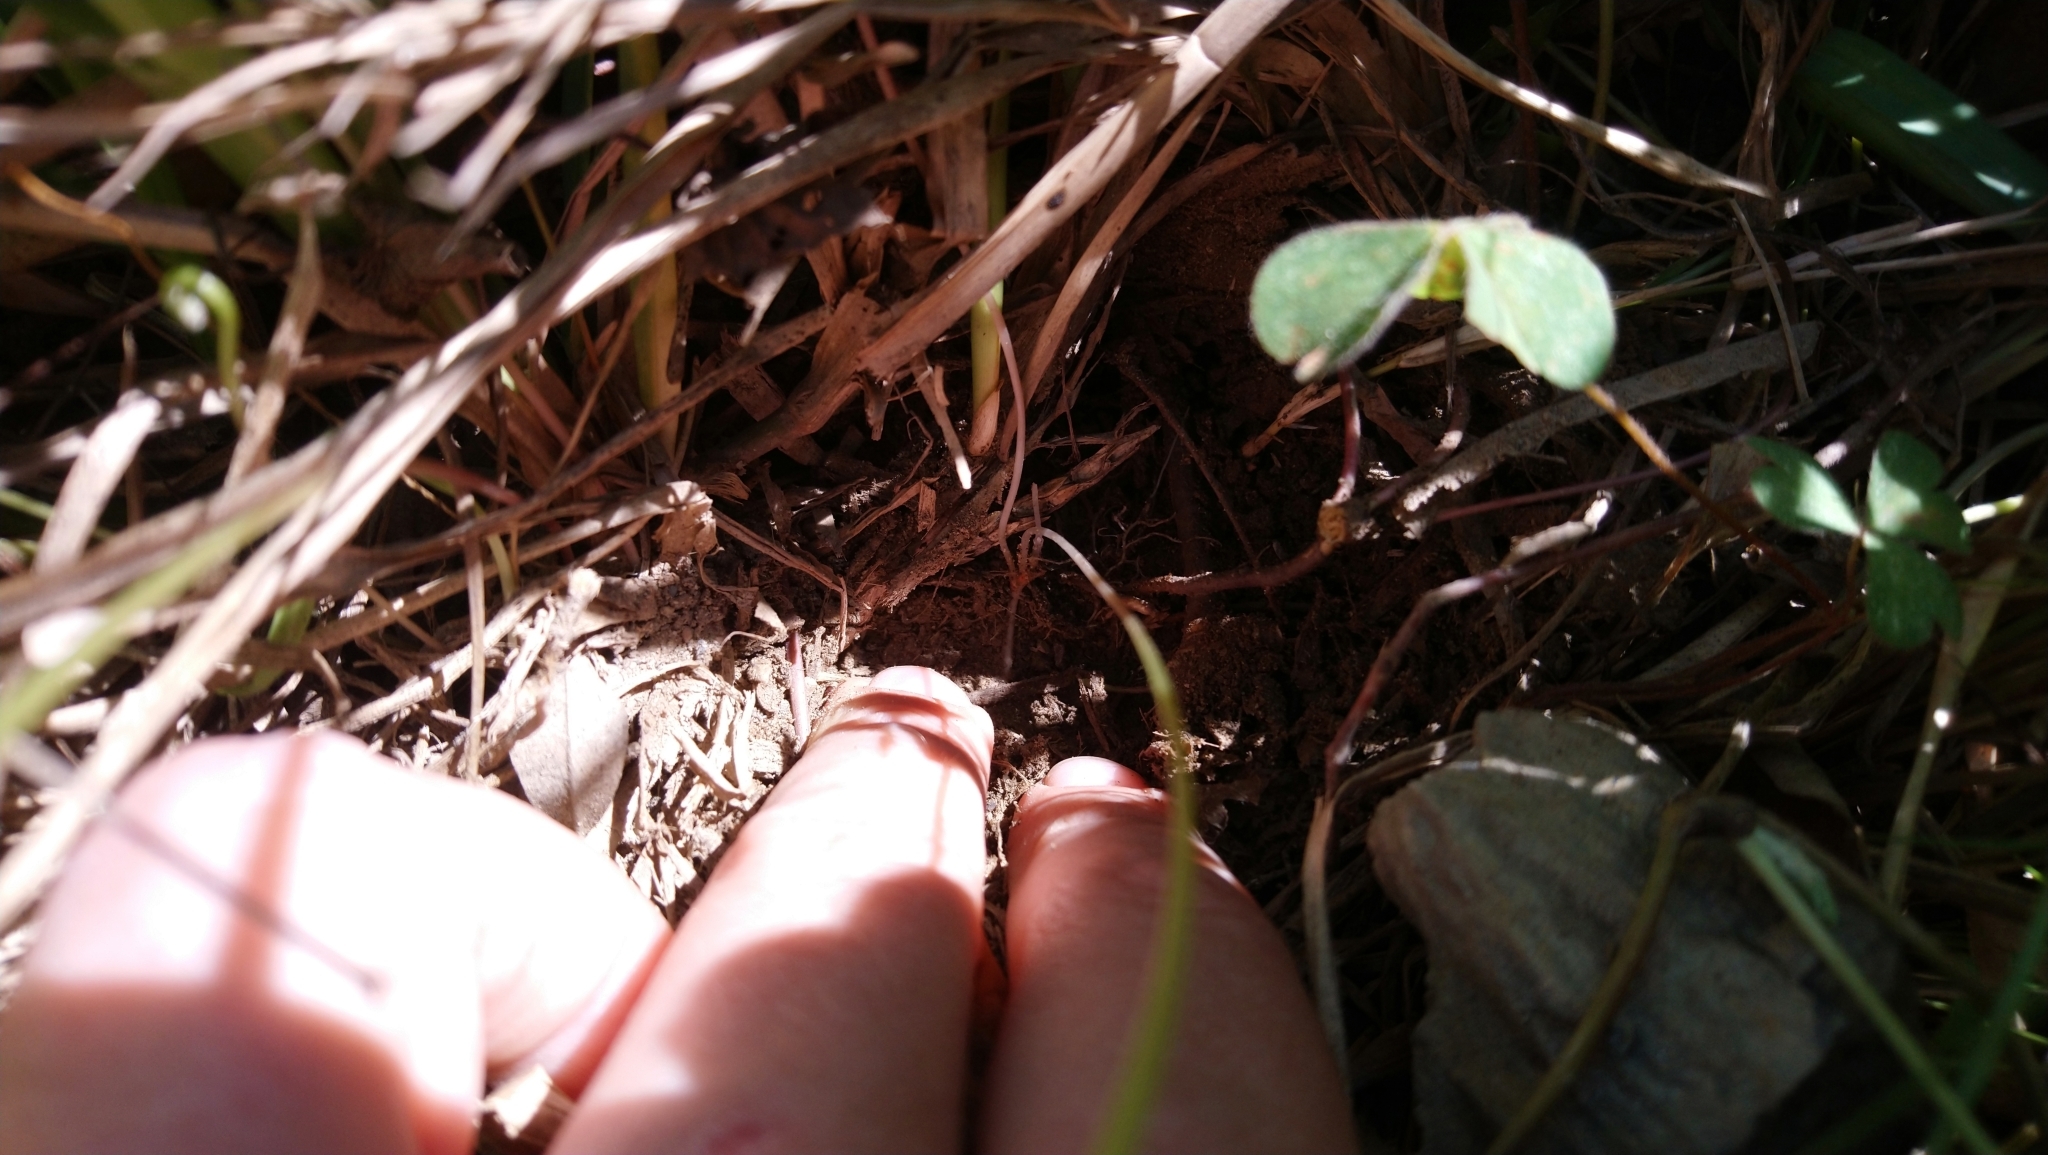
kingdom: Plantae
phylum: Tracheophyta
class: Magnoliopsida
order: Oxalidales
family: Oxalidaceae
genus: Oxalis
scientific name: Oxalis smithiana
